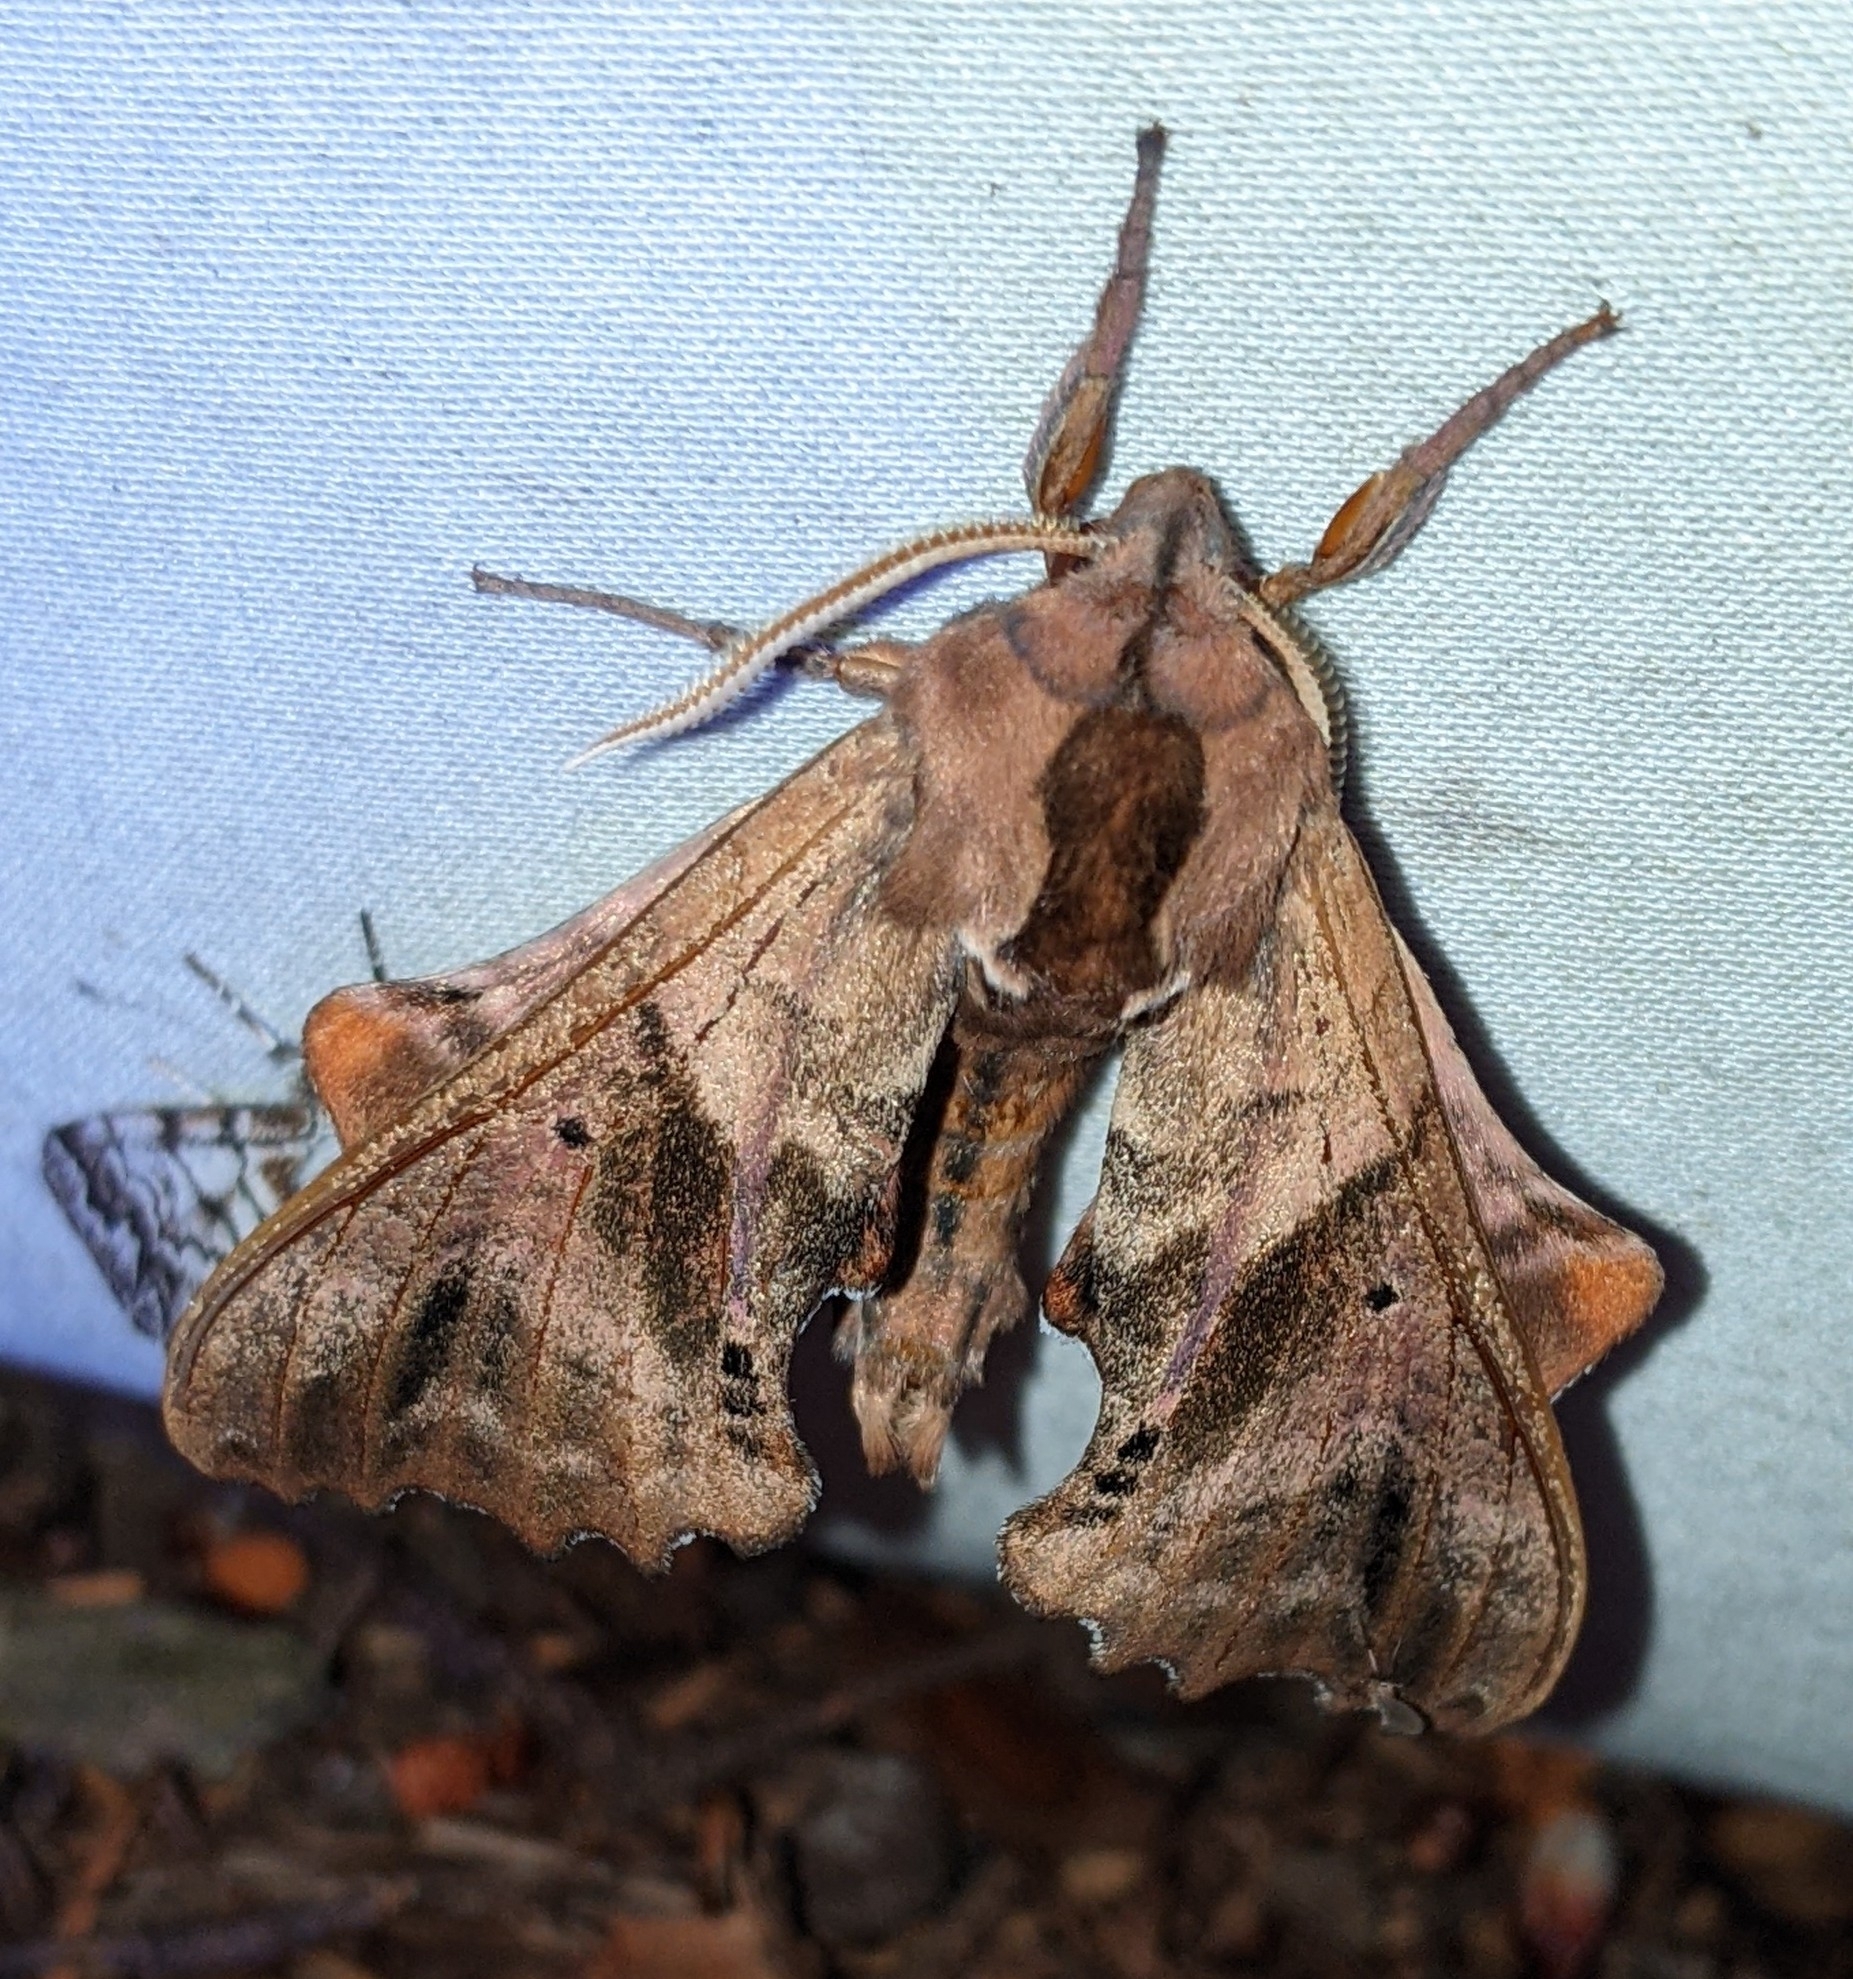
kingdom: Animalia
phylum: Arthropoda
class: Insecta
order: Lepidoptera
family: Sphingidae
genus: Paonias
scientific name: Paonias excaecata
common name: Blind-eyed sphinx
